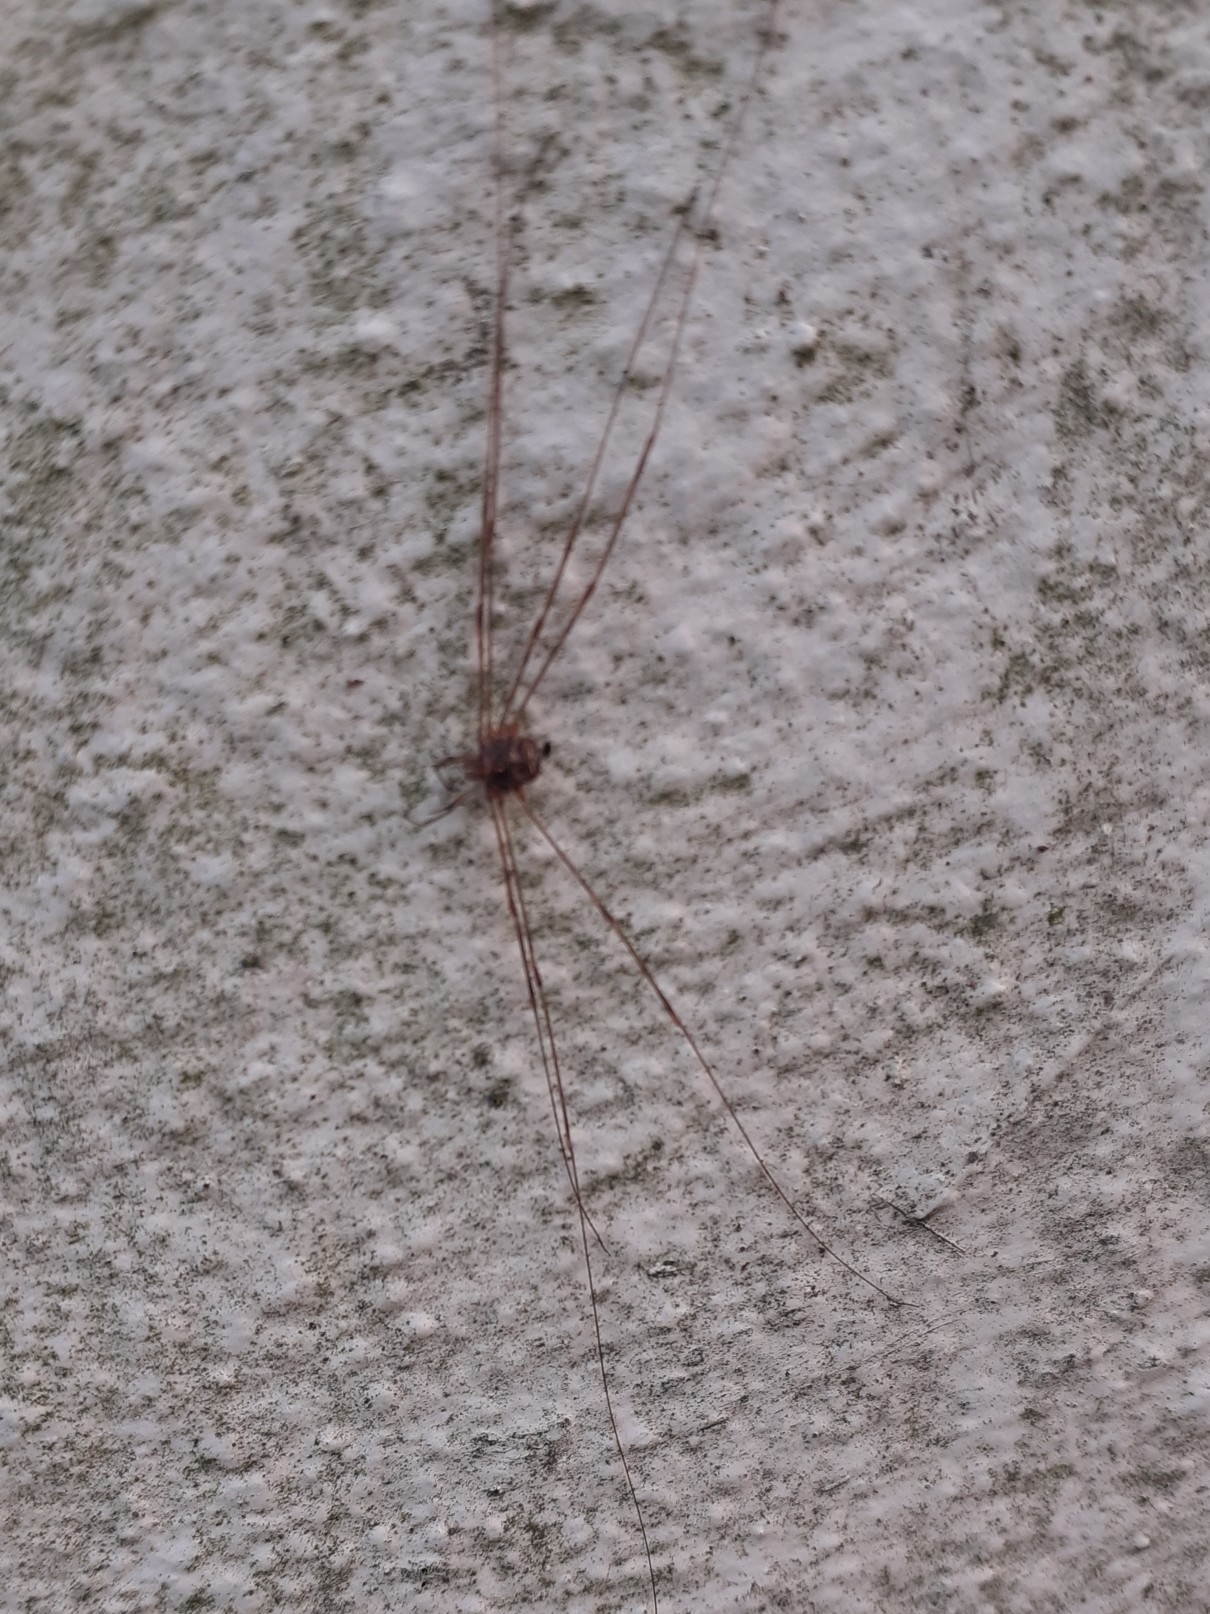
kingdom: Animalia
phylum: Arthropoda
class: Arachnida
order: Opiliones
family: Phalangiidae
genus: Dicranopalpus
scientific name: Dicranopalpus ramosus
